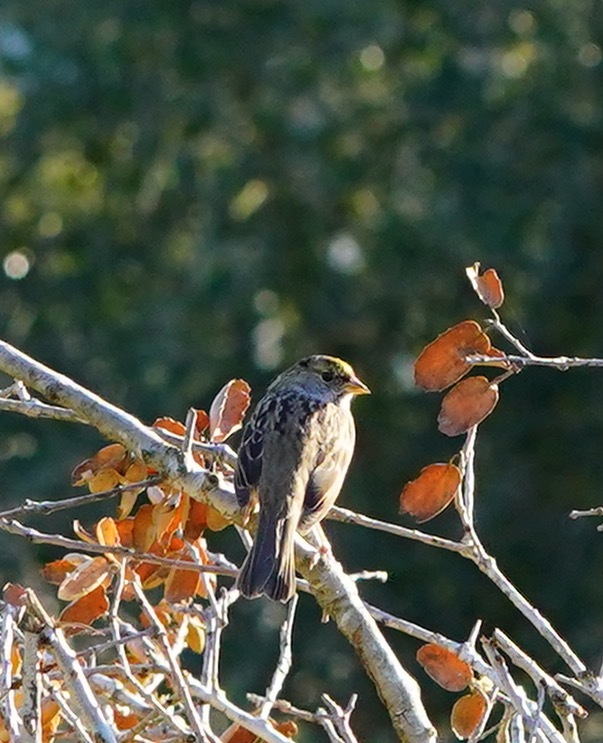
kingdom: Animalia
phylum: Chordata
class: Aves
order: Passeriformes
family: Passerellidae
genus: Zonotrichia
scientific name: Zonotrichia atricapilla
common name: Golden-crowned sparrow
